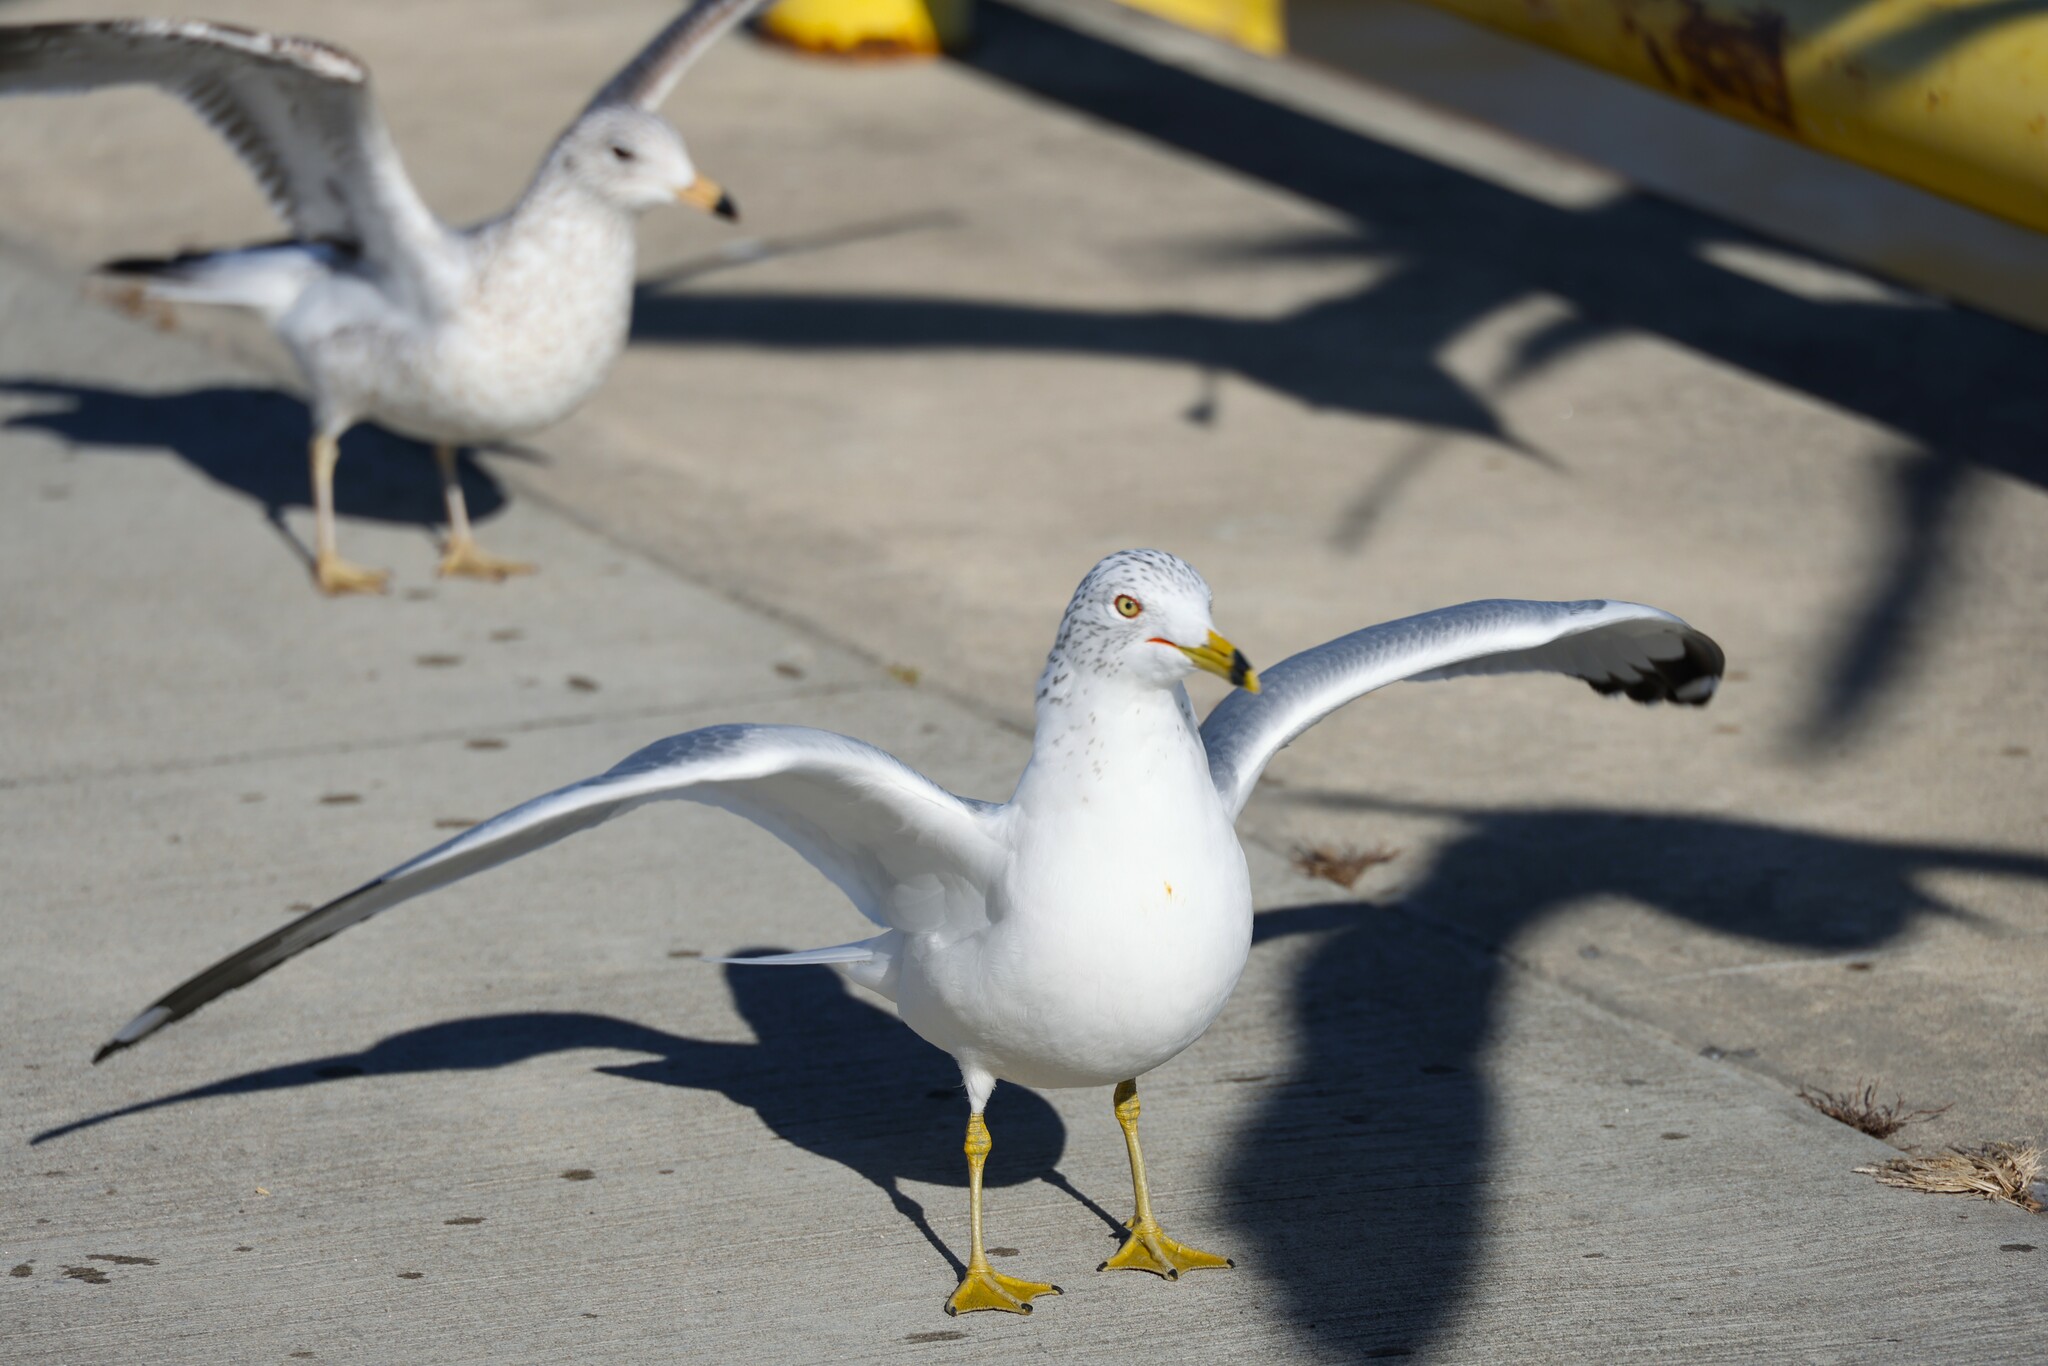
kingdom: Animalia
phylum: Chordata
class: Aves
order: Charadriiformes
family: Laridae
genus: Larus
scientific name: Larus delawarensis
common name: Ring-billed gull
